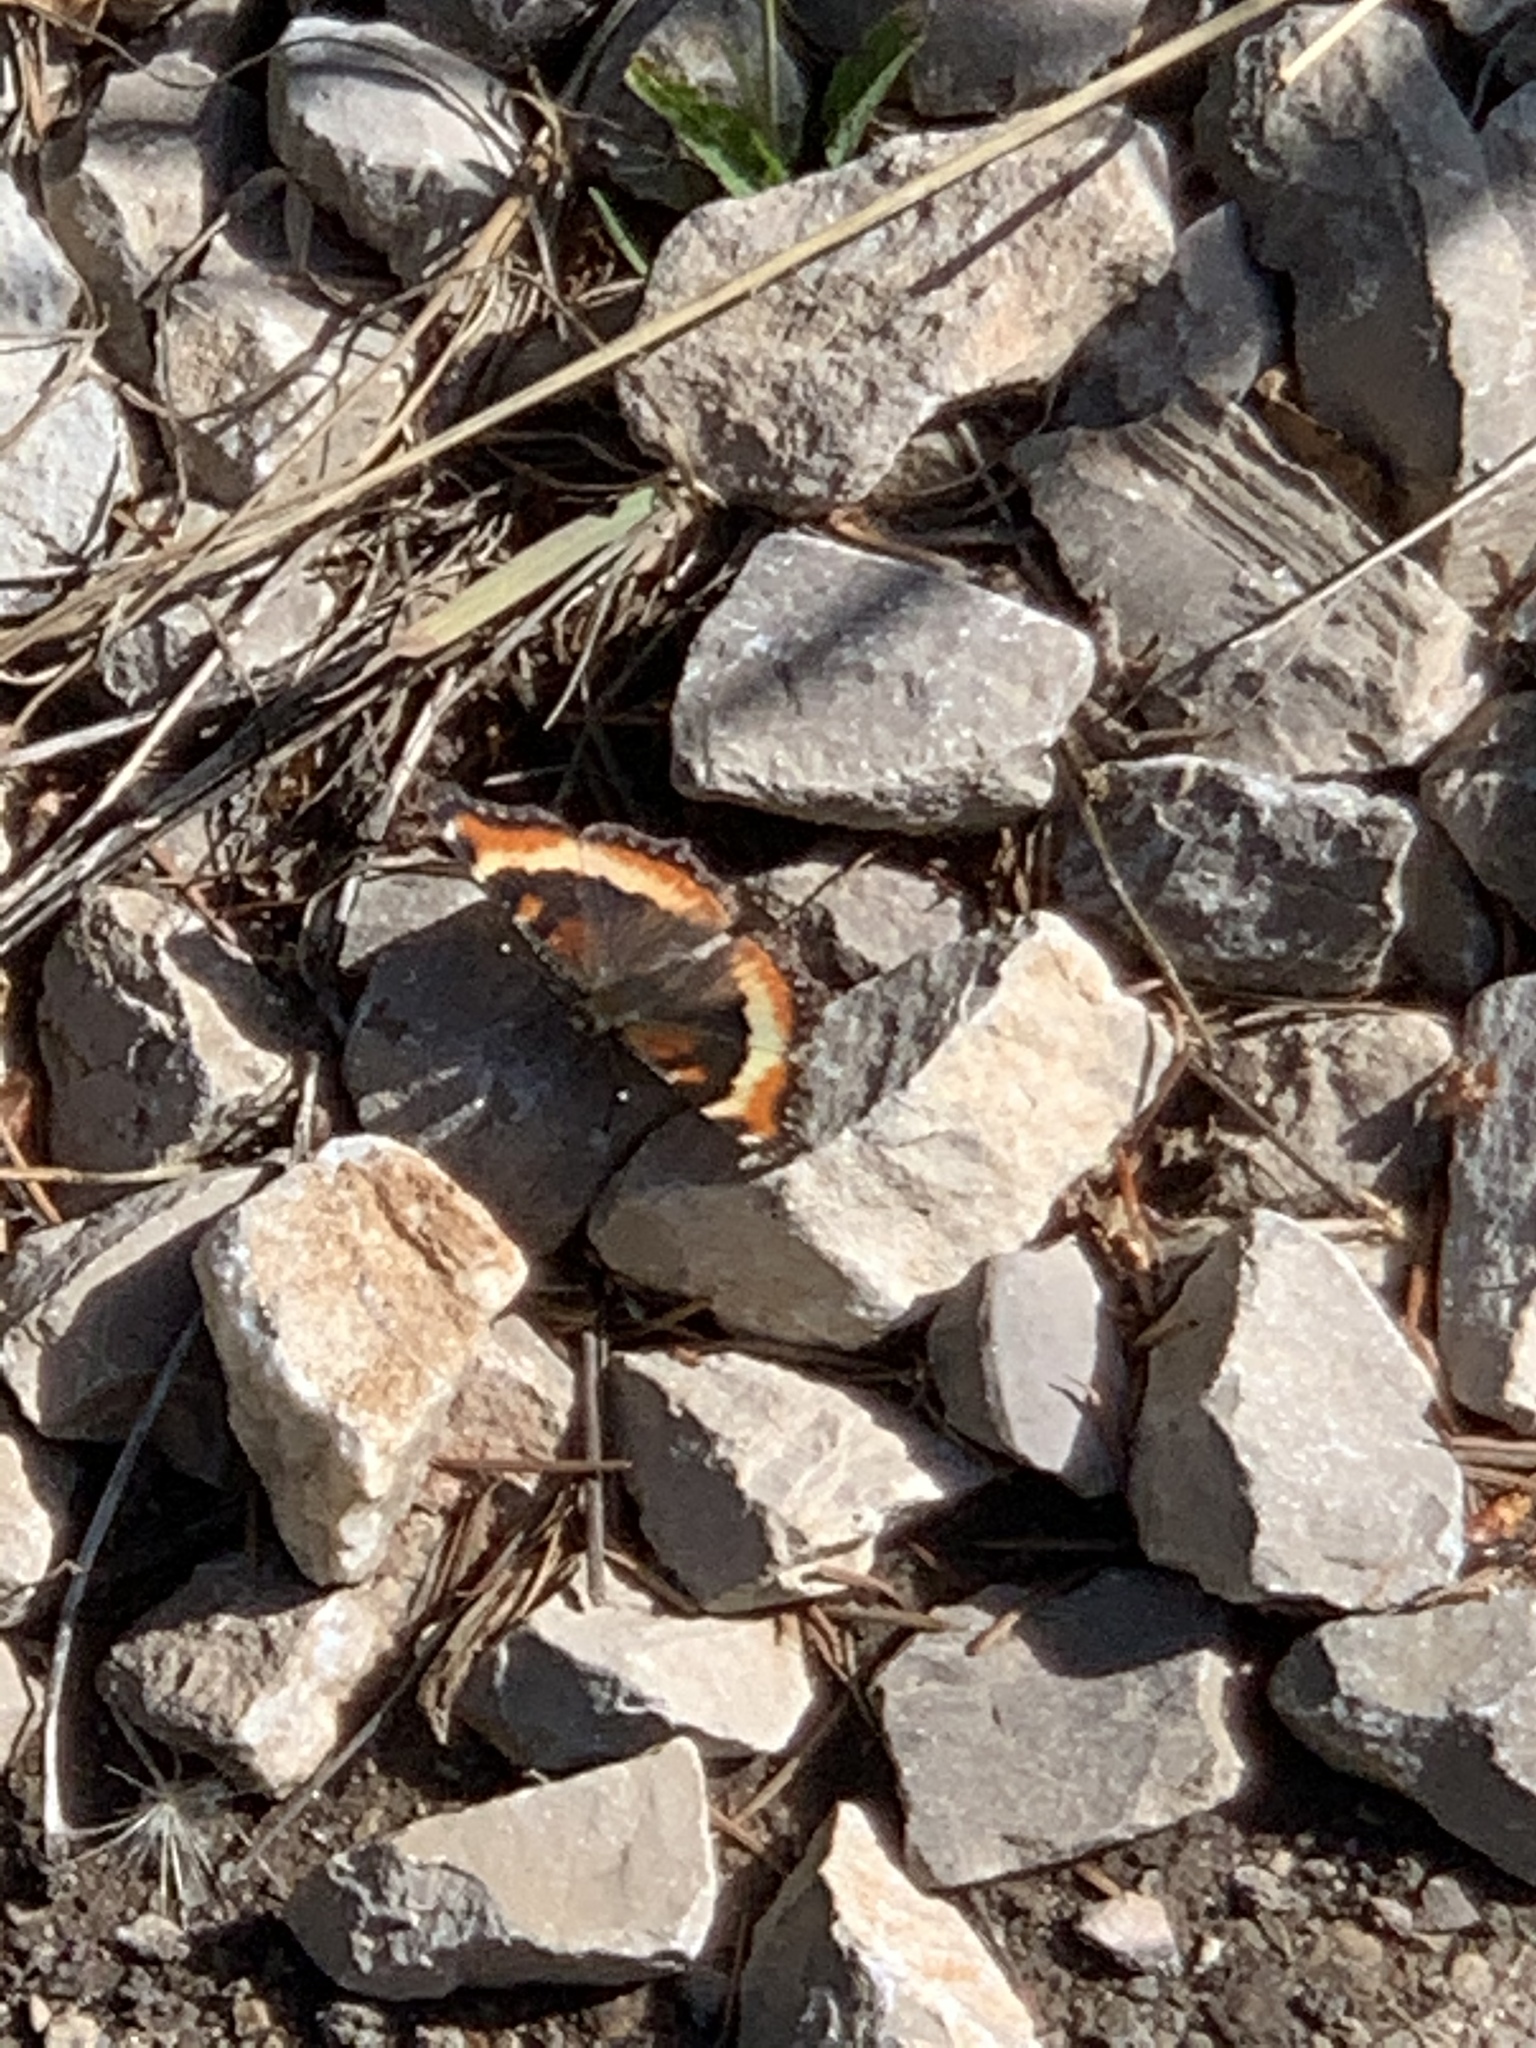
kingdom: Animalia
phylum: Arthropoda
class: Insecta
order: Lepidoptera
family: Nymphalidae
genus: Aglais
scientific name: Aglais milberti
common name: Milbert's tortoiseshell
